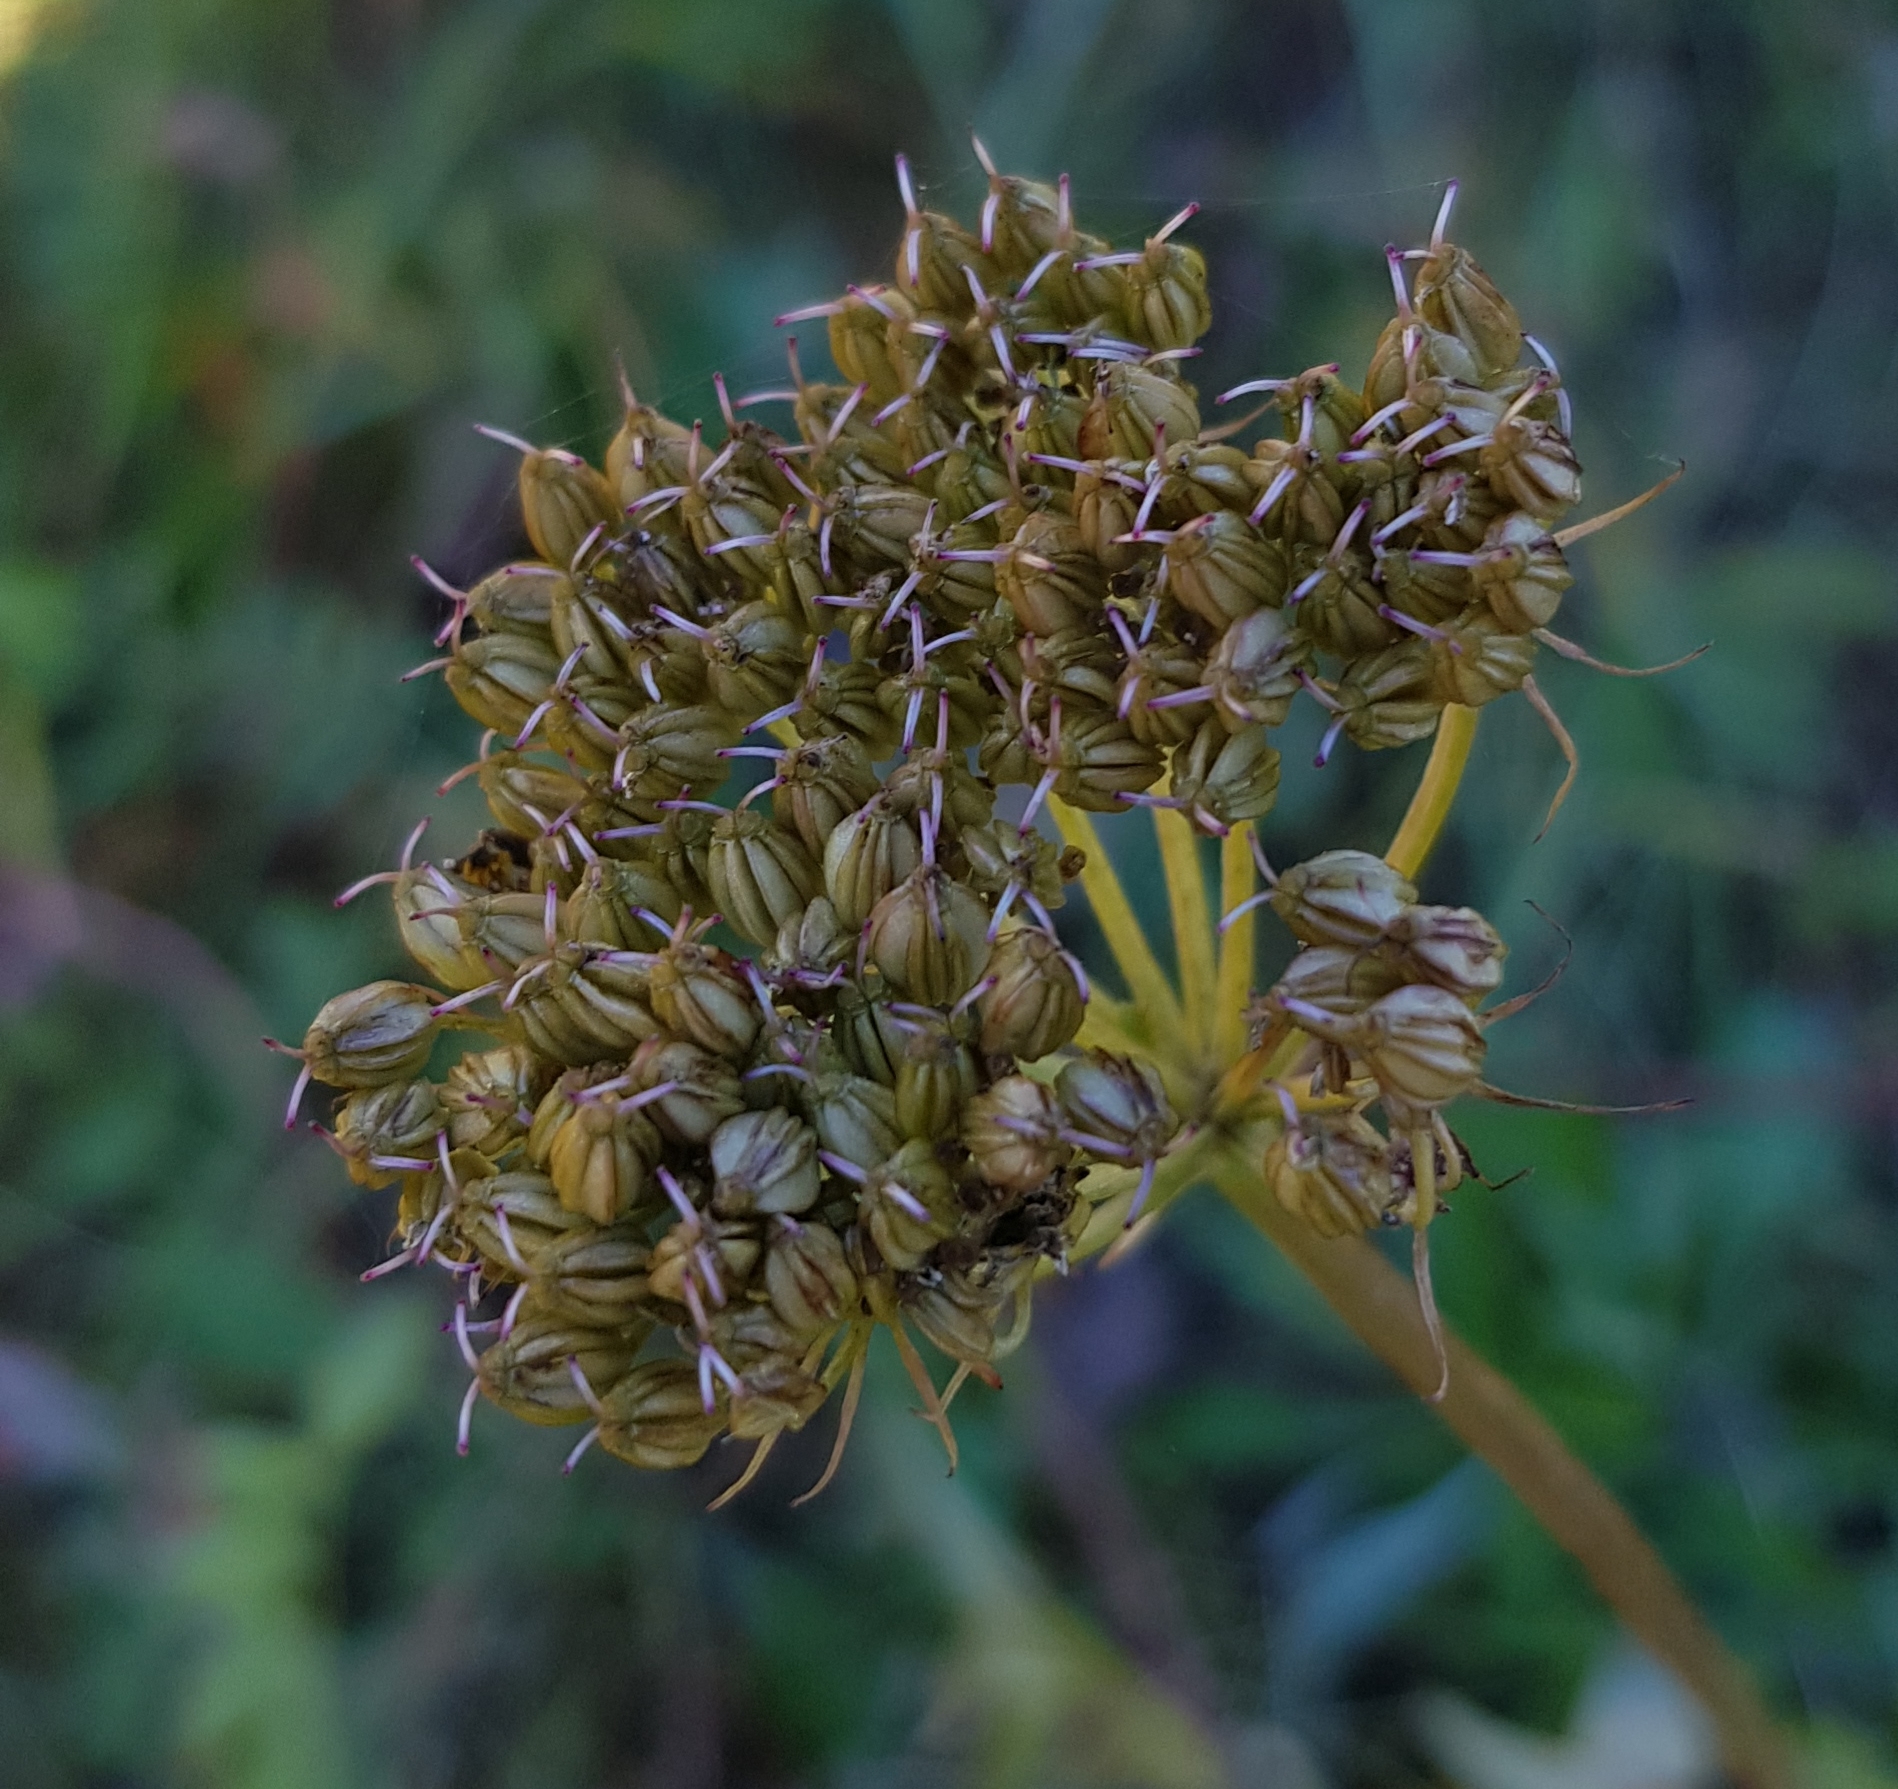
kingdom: Plantae
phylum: Tracheophyta
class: Magnoliopsida
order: Apiales
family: Apiaceae
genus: Conioselinum
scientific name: Conioselinum tataricum
